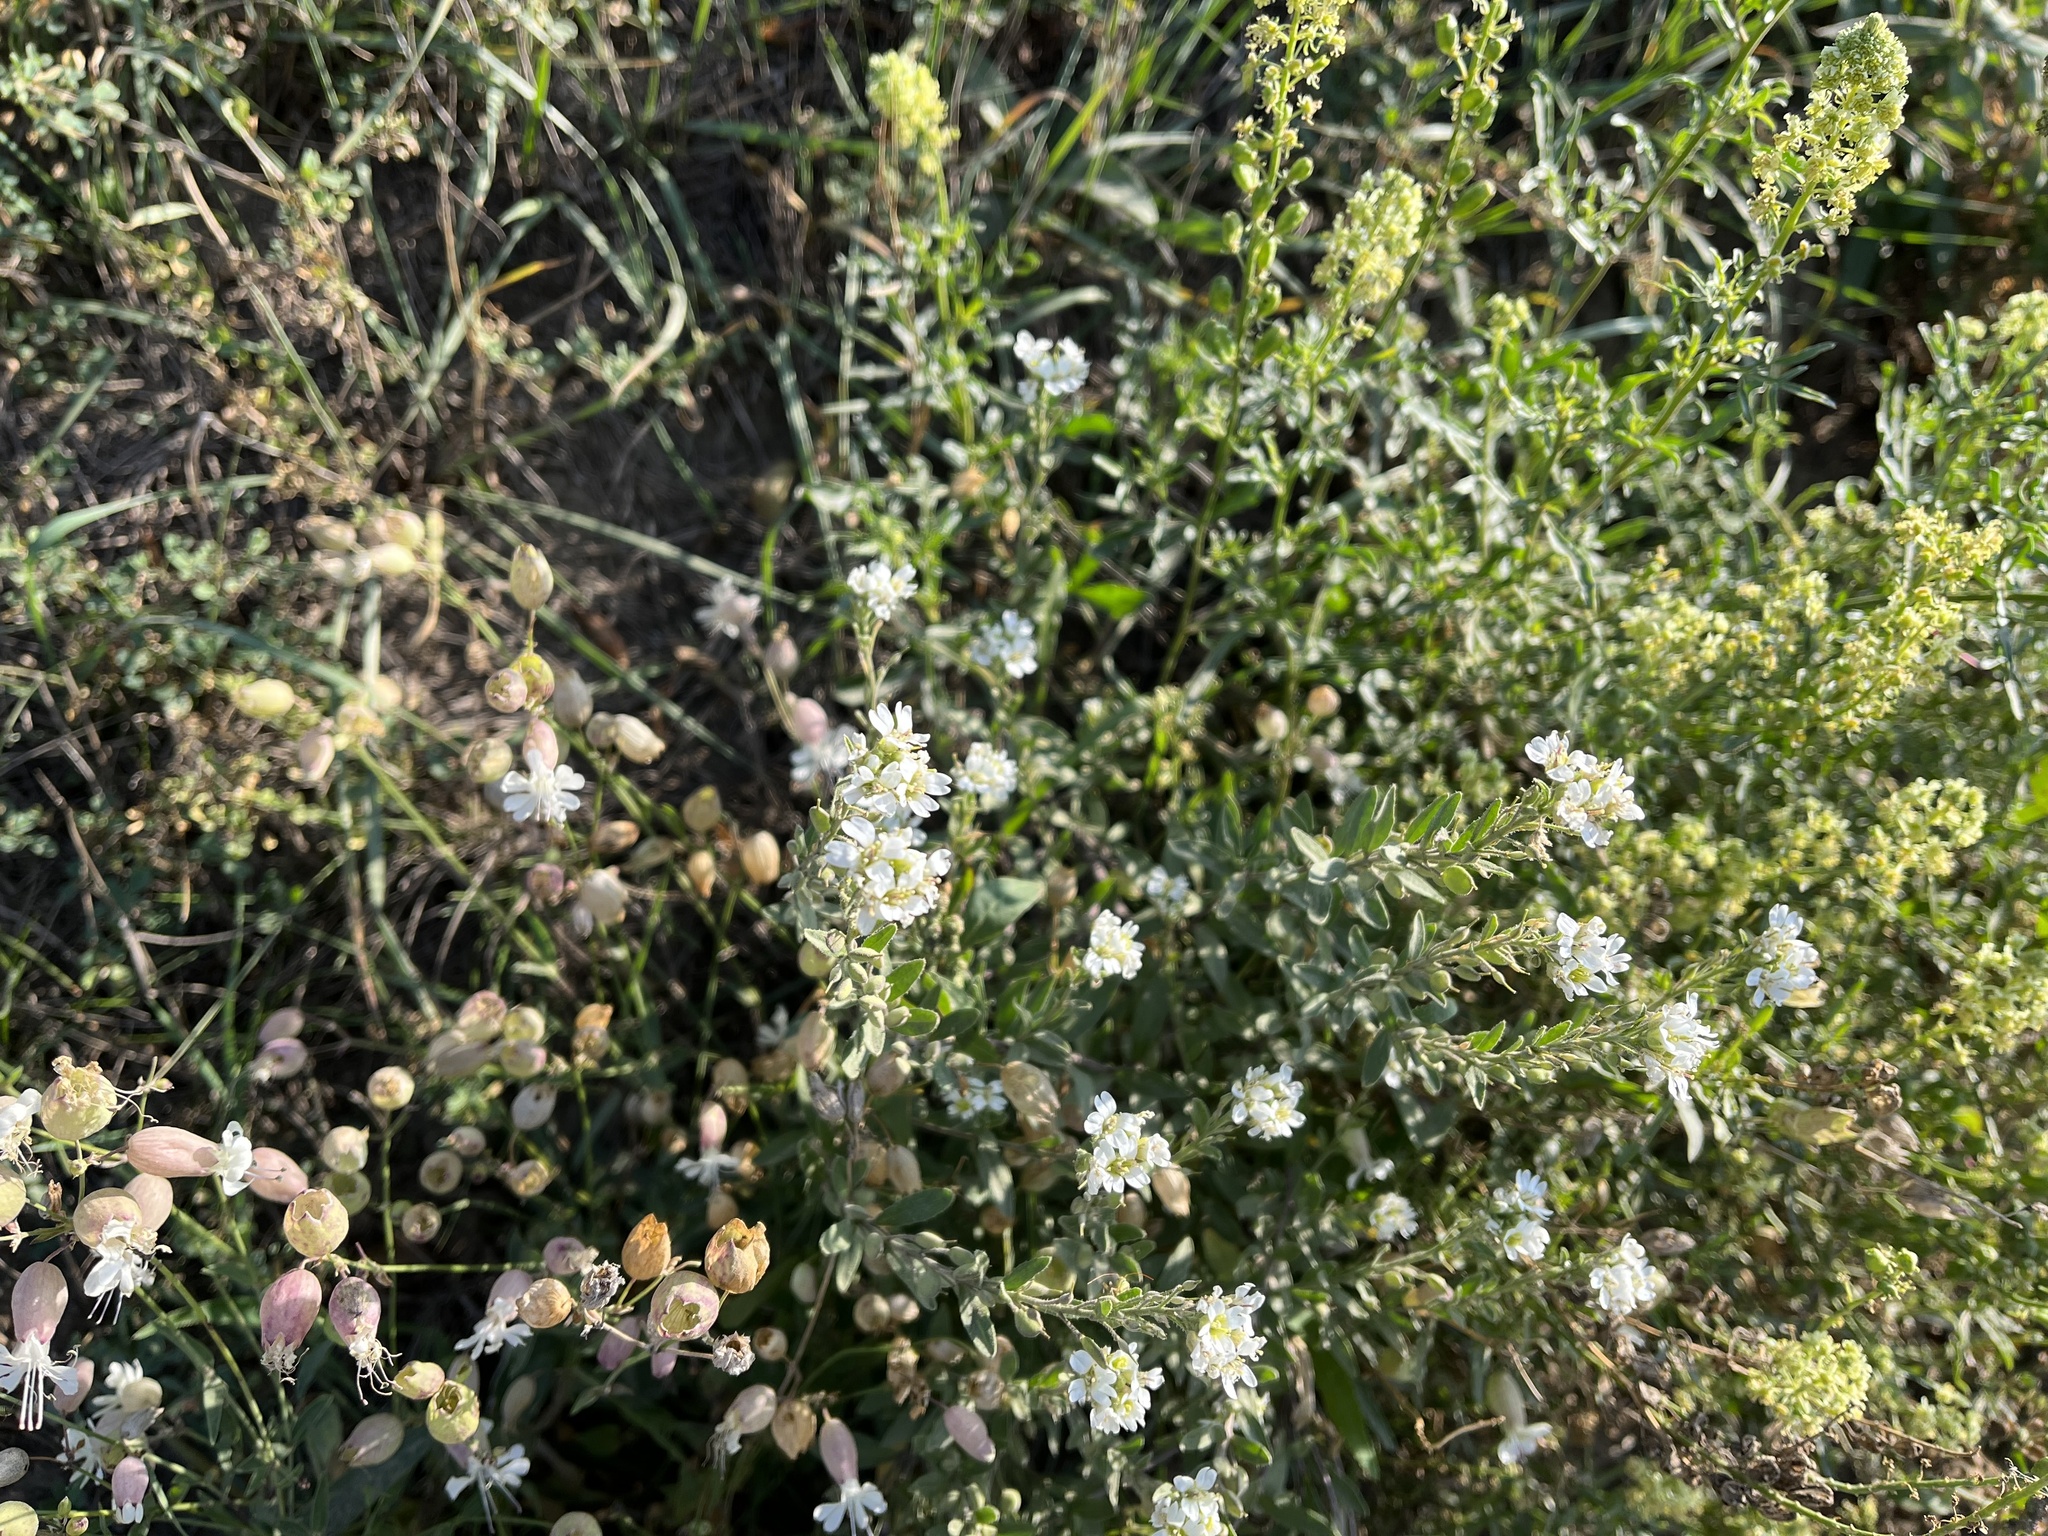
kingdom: Plantae
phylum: Tracheophyta
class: Magnoliopsida
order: Brassicales
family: Brassicaceae
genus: Berteroa
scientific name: Berteroa incana
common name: Hoary alison
